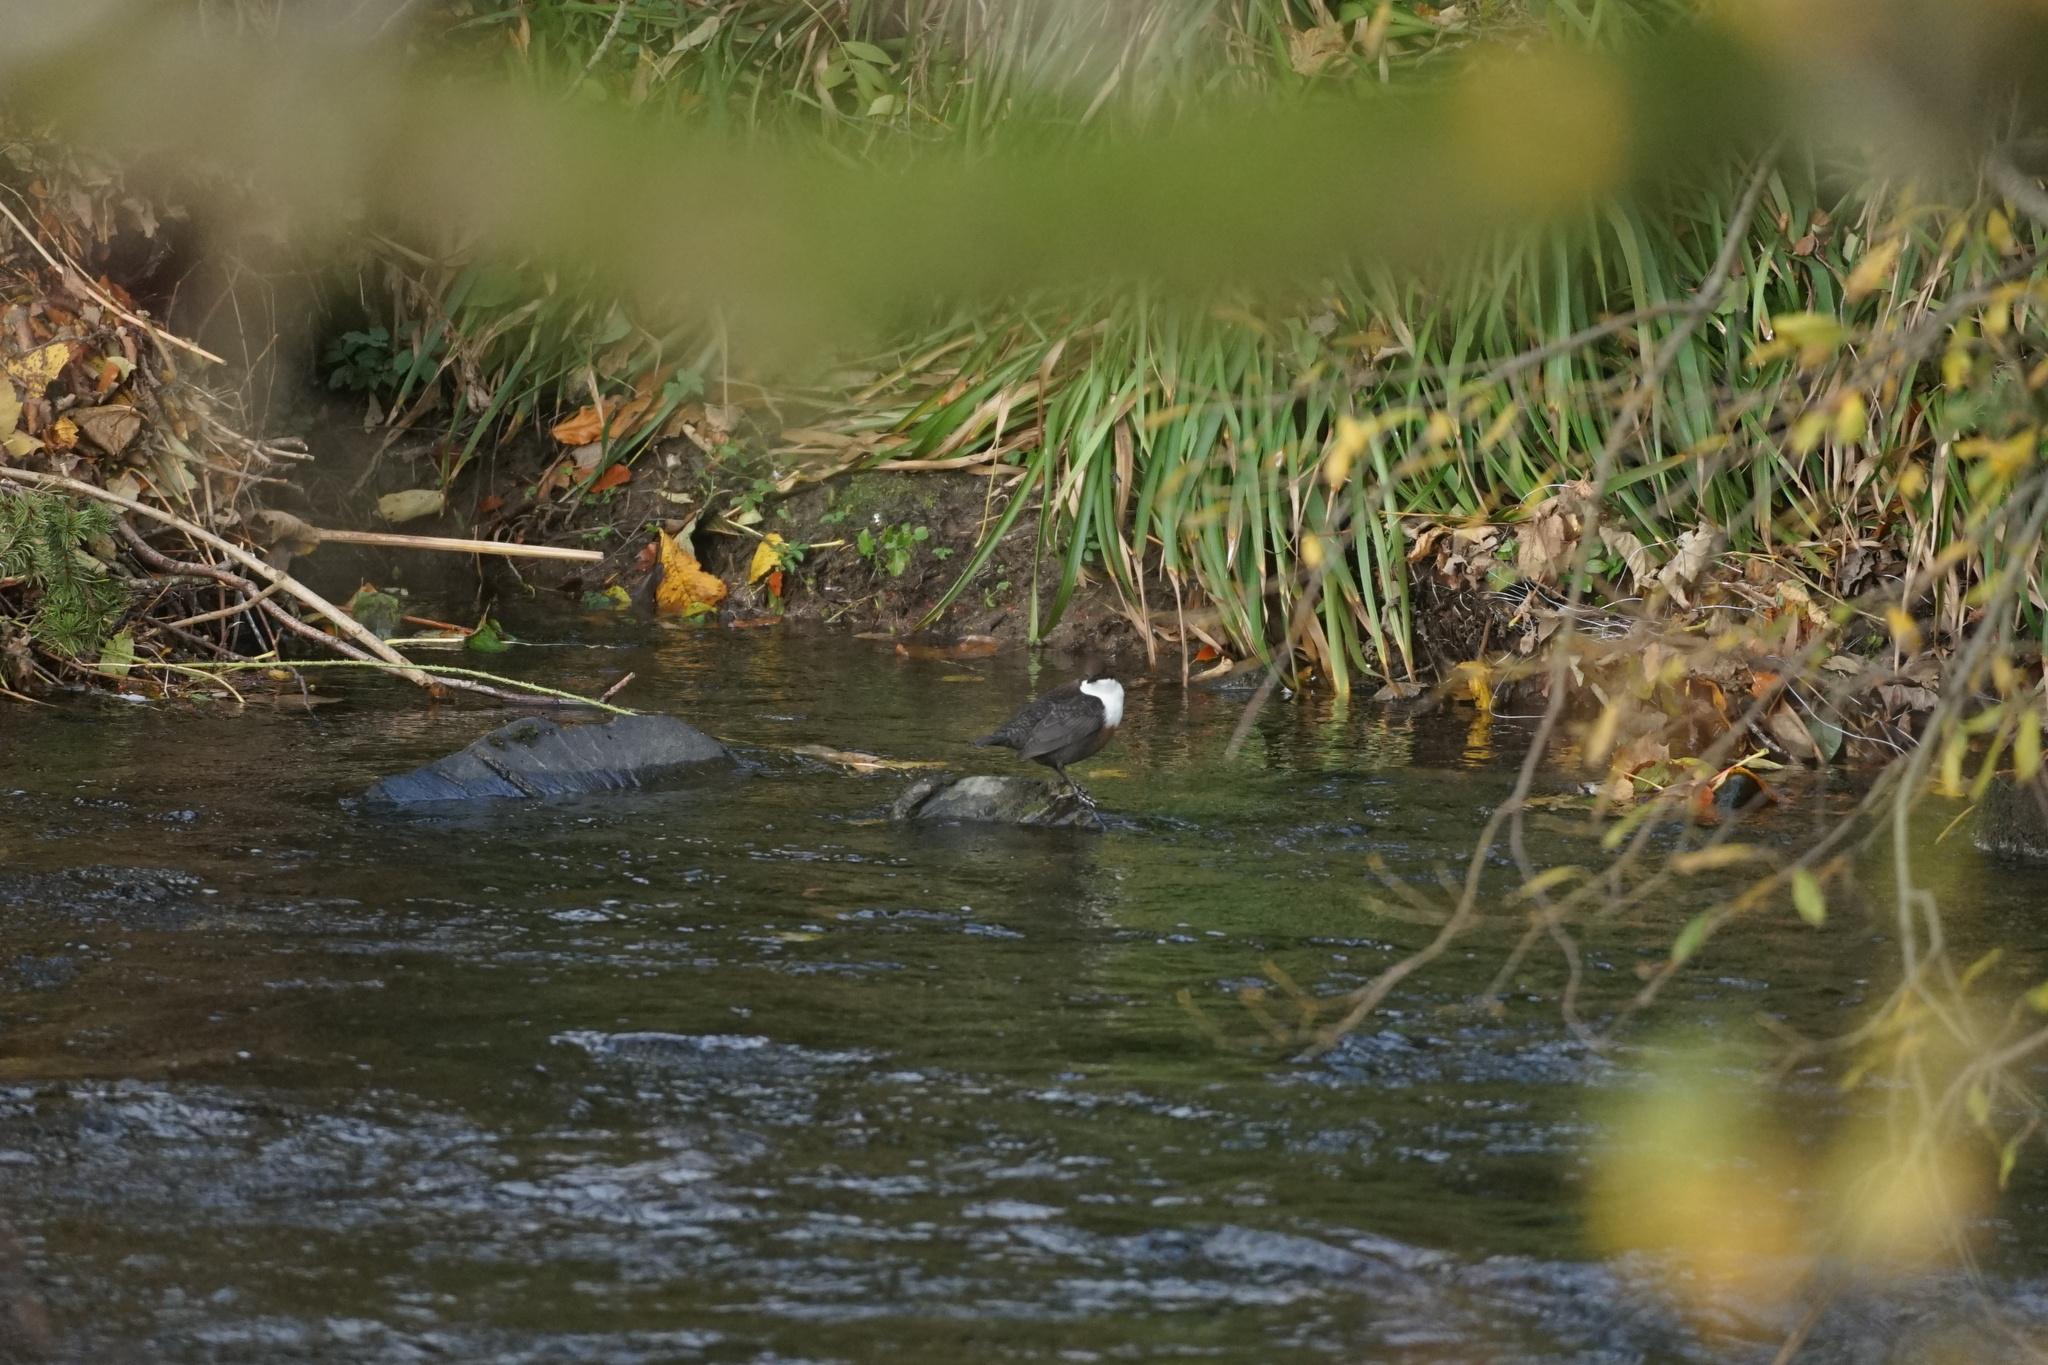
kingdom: Animalia
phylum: Chordata
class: Aves
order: Passeriformes
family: Cinclidae
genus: Cinclus
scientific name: Cinclus cinclus
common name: White-throated dipper
